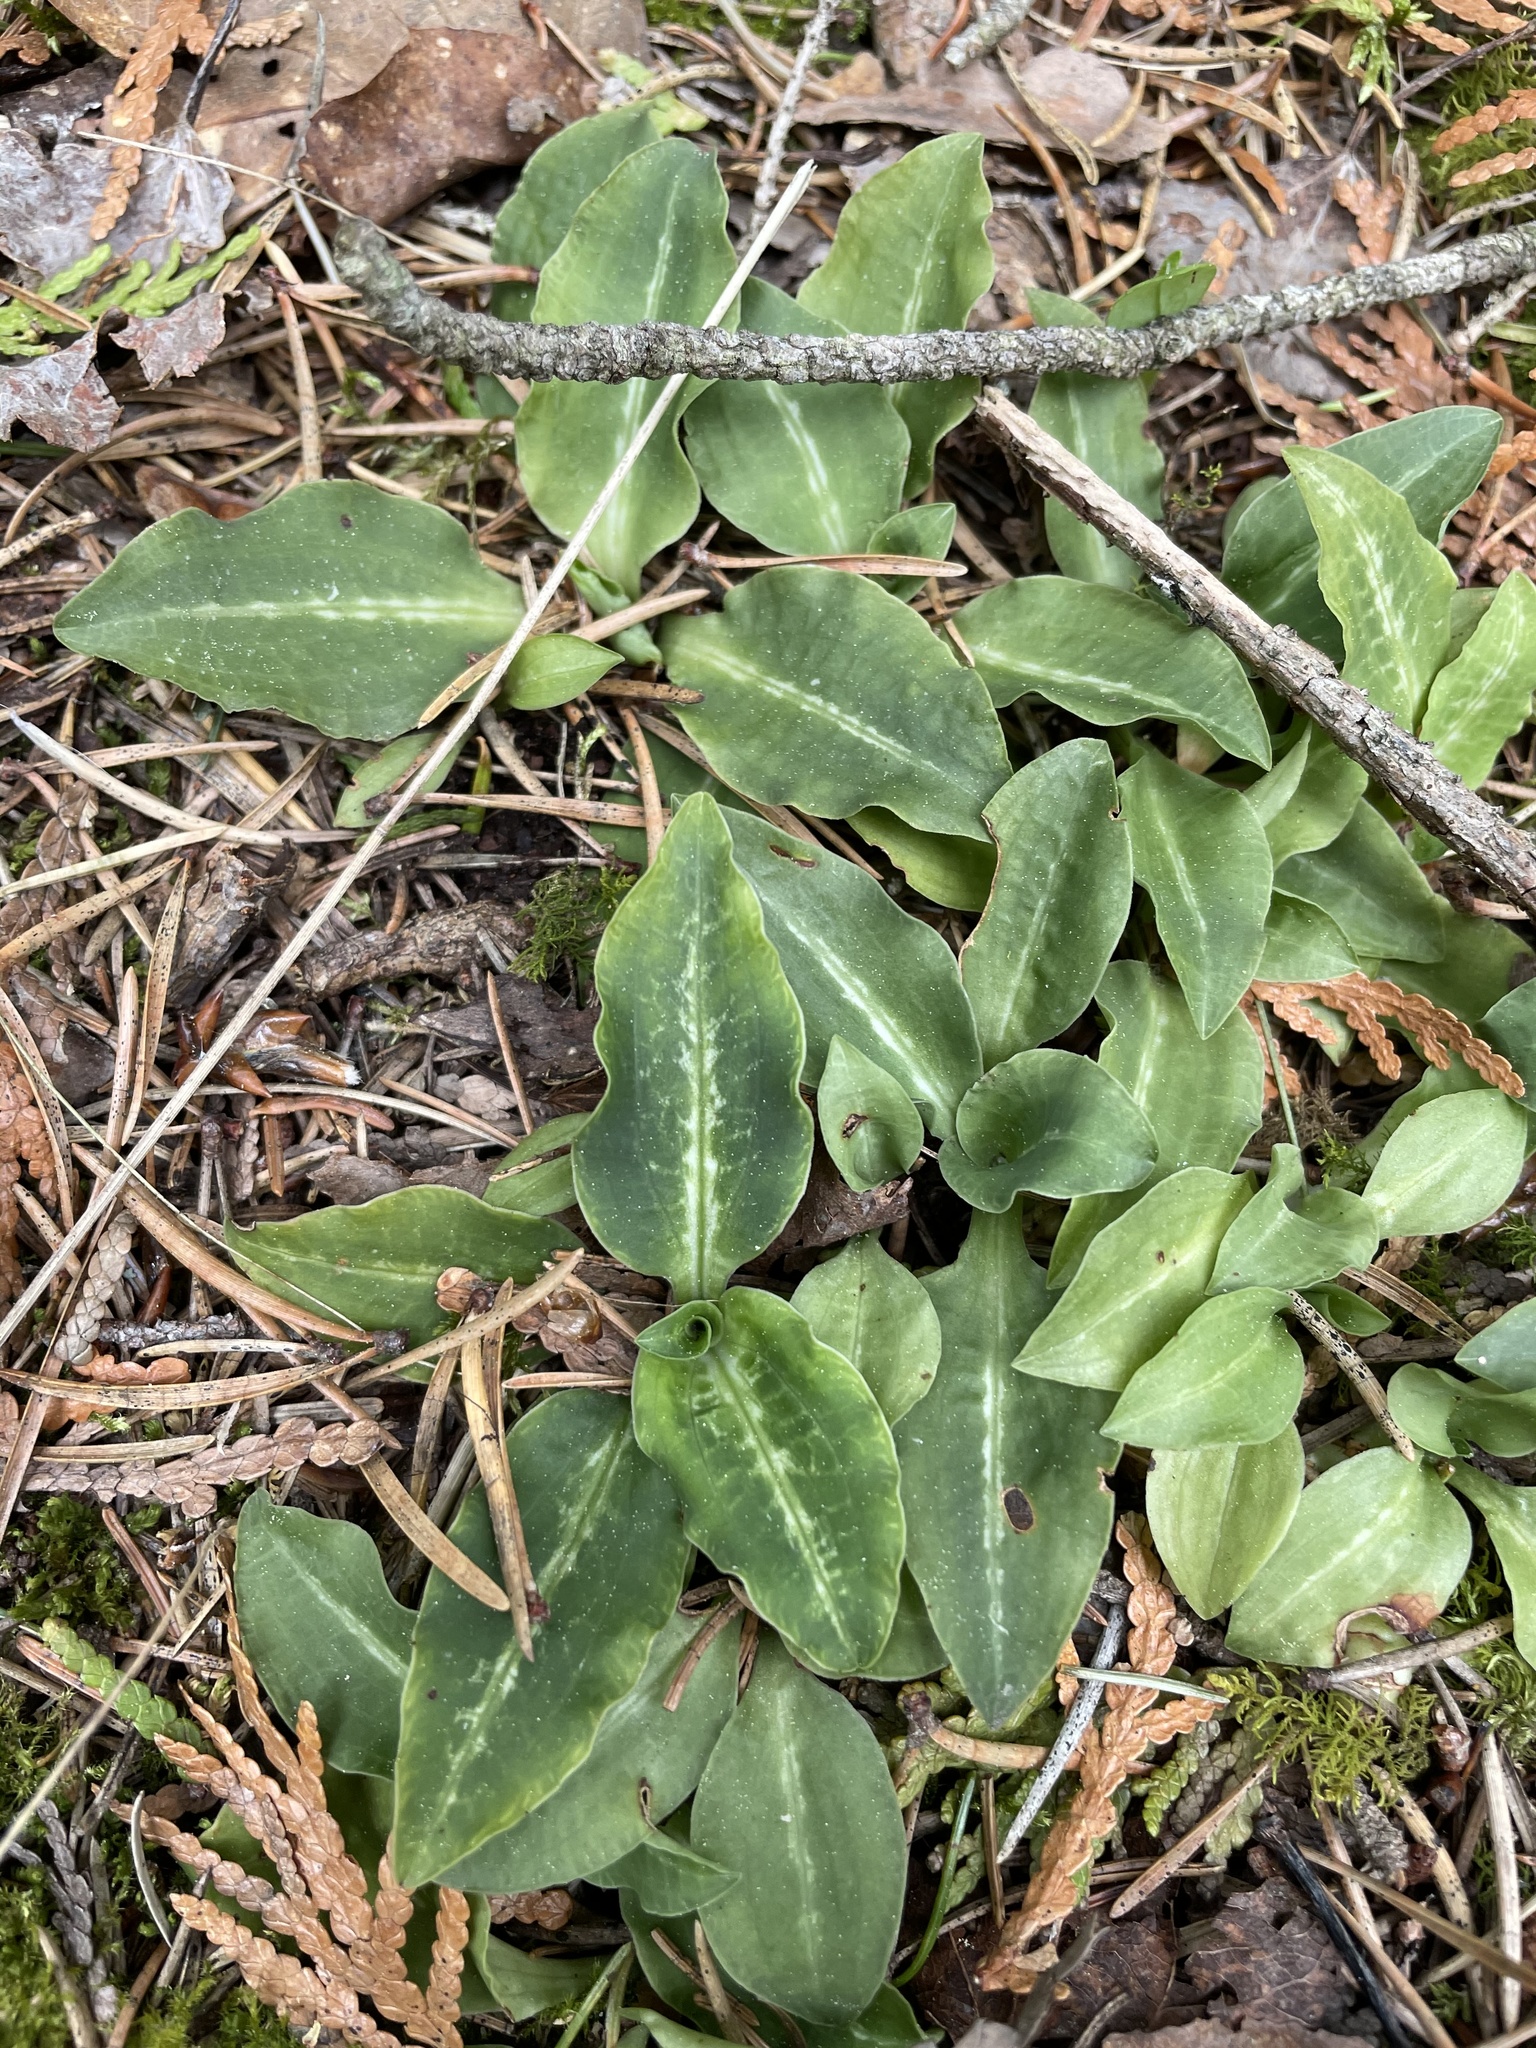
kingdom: Plantae
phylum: Tracheophyta
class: Liliopsida
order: Asparagales
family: Orchidaceae
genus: Goodyera
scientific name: Goodyera oblongifolia
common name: Giant rattlesnake-plantain
